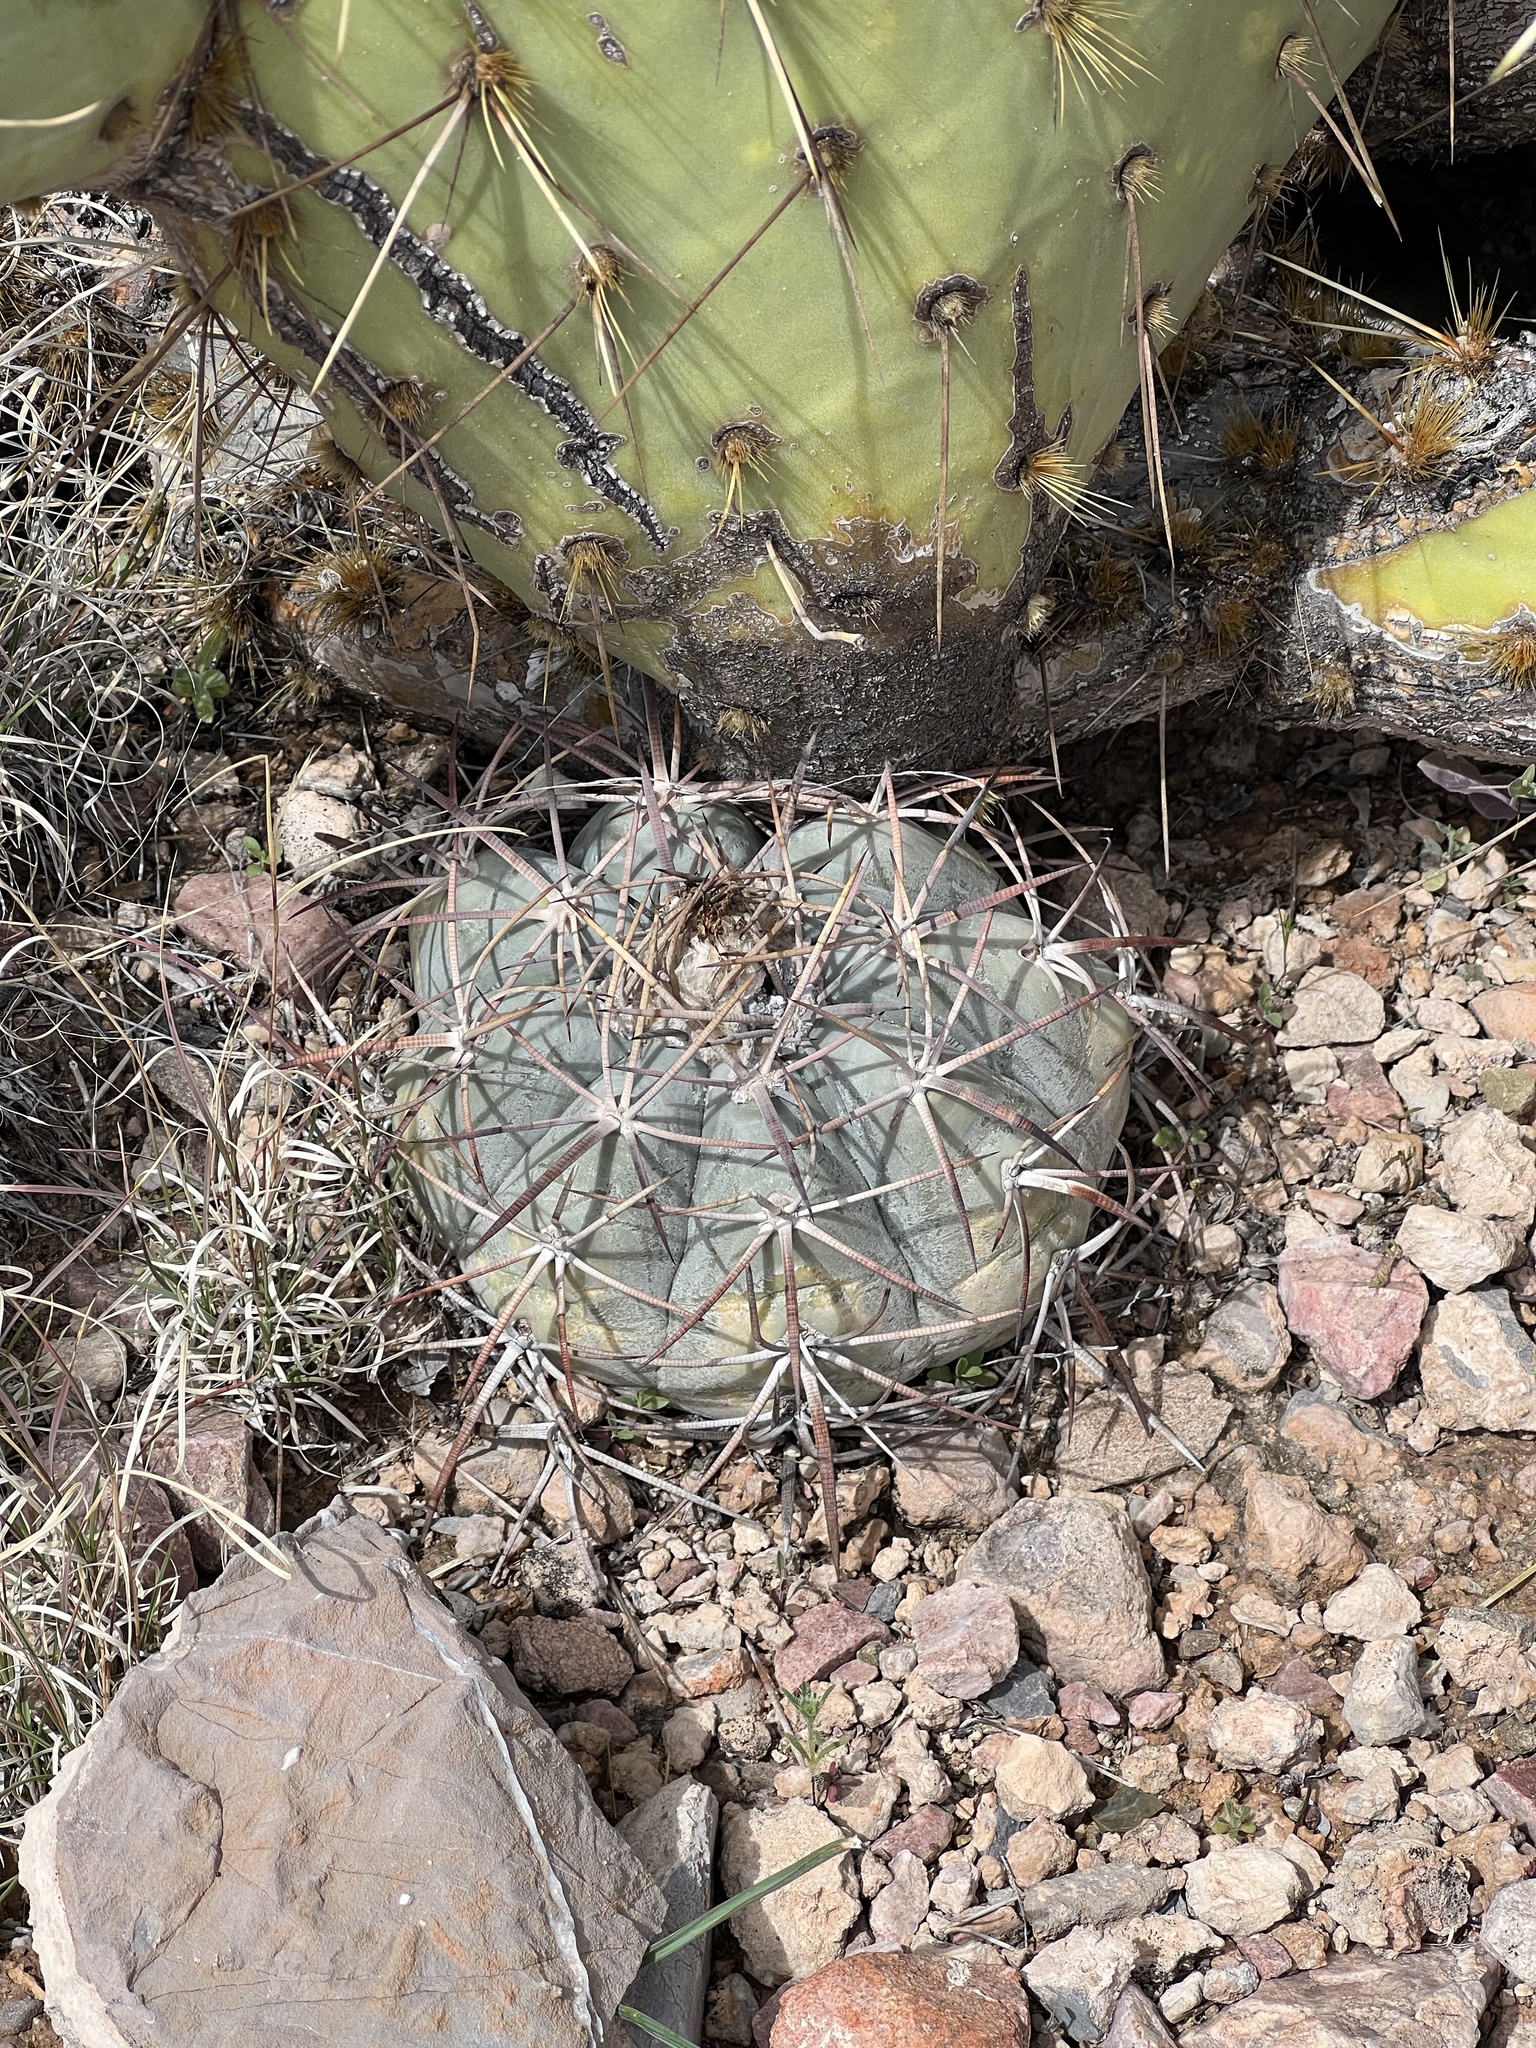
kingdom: Plantae
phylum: Tracheophyta
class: Magnoliopsida
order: Caryophyllales
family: Cactaceae
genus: Echinocactus
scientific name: Echinocactus horizonthalonius
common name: Devilshead
